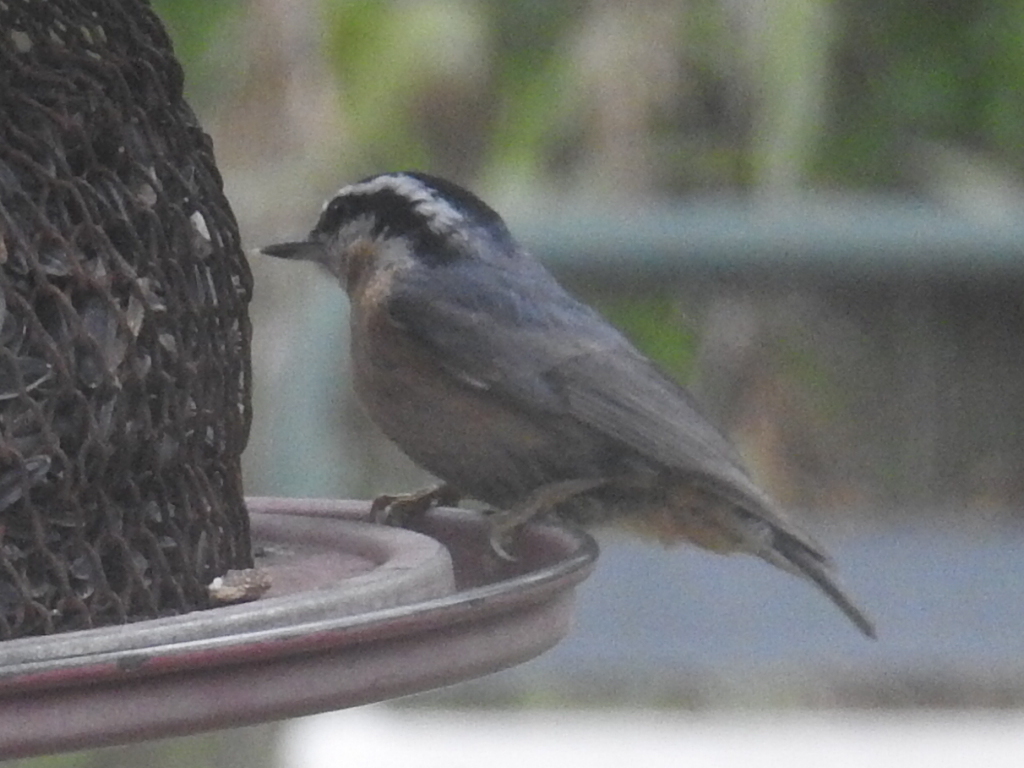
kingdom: Animalia
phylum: Chordata
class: Aves
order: Passeriformes
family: Sittidae
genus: Sitta
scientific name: Sitta canadensis
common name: Red-breasted nuthatch
